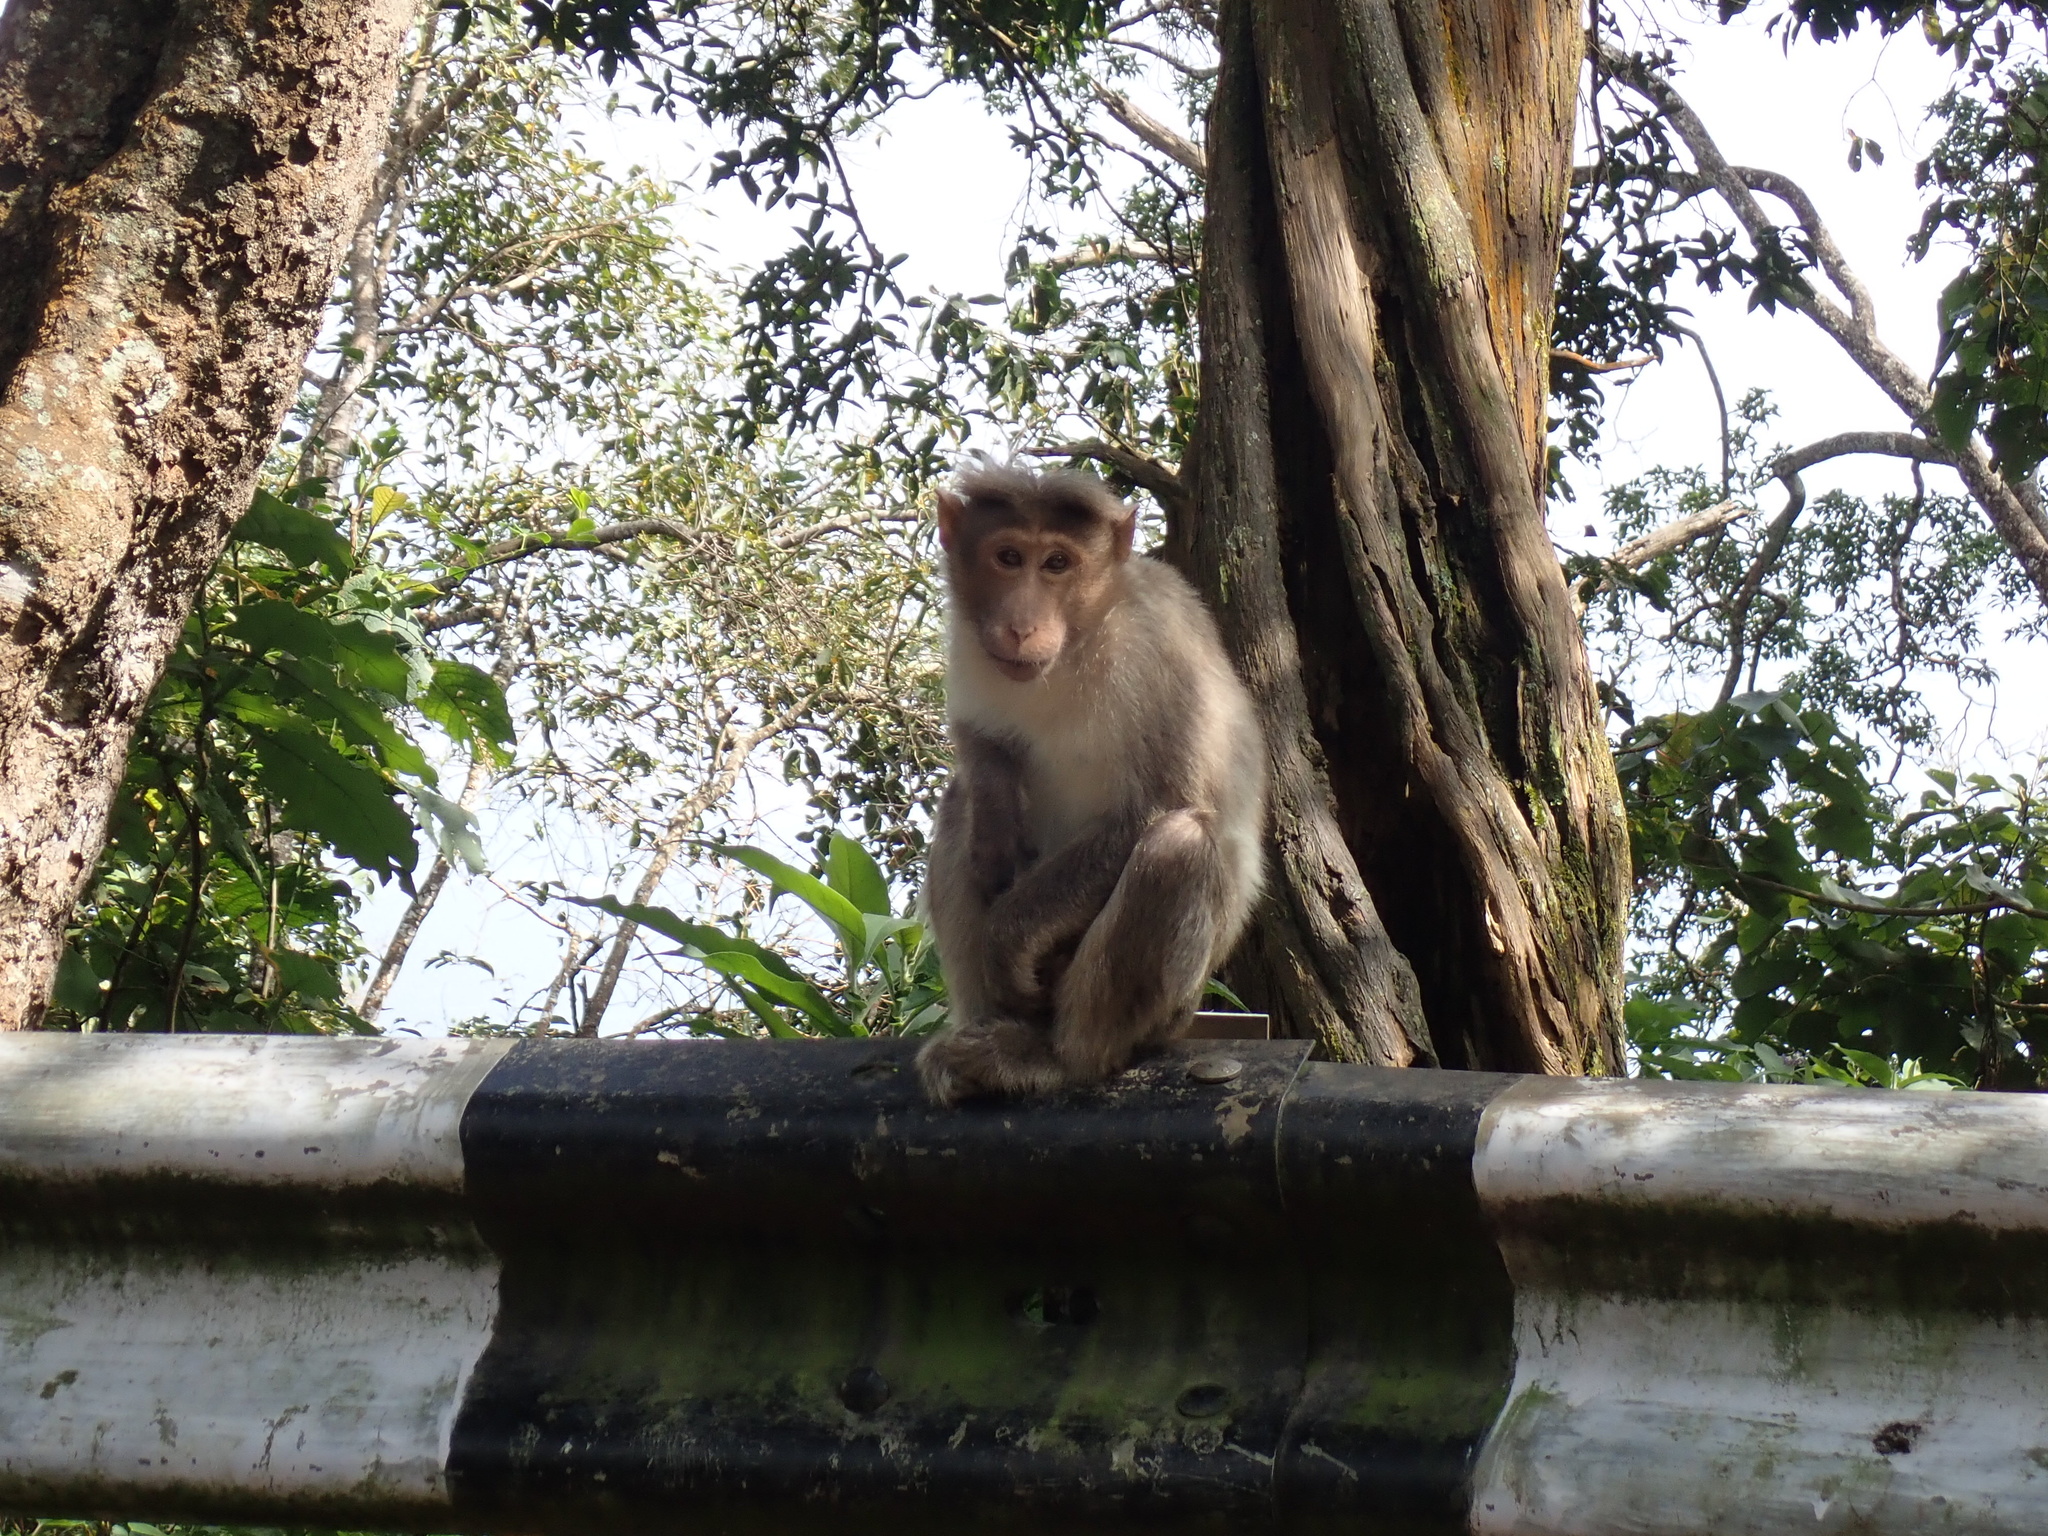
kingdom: Animalia
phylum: Chordata
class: Mammalia
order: Primates
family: Cercopithecidae
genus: Macaca
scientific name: Macaca radiata
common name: Bonnet macaque
